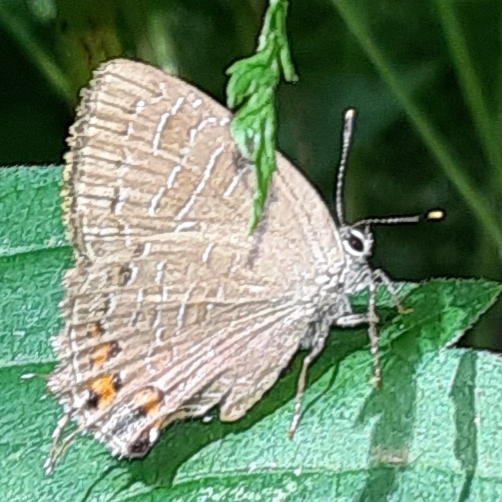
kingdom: Animalia
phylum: Arthropoda
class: Insecta
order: Lepidoptera
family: Lycaenidae
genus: Satyrium
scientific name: Satyrium liparops
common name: Striped hairstreak
